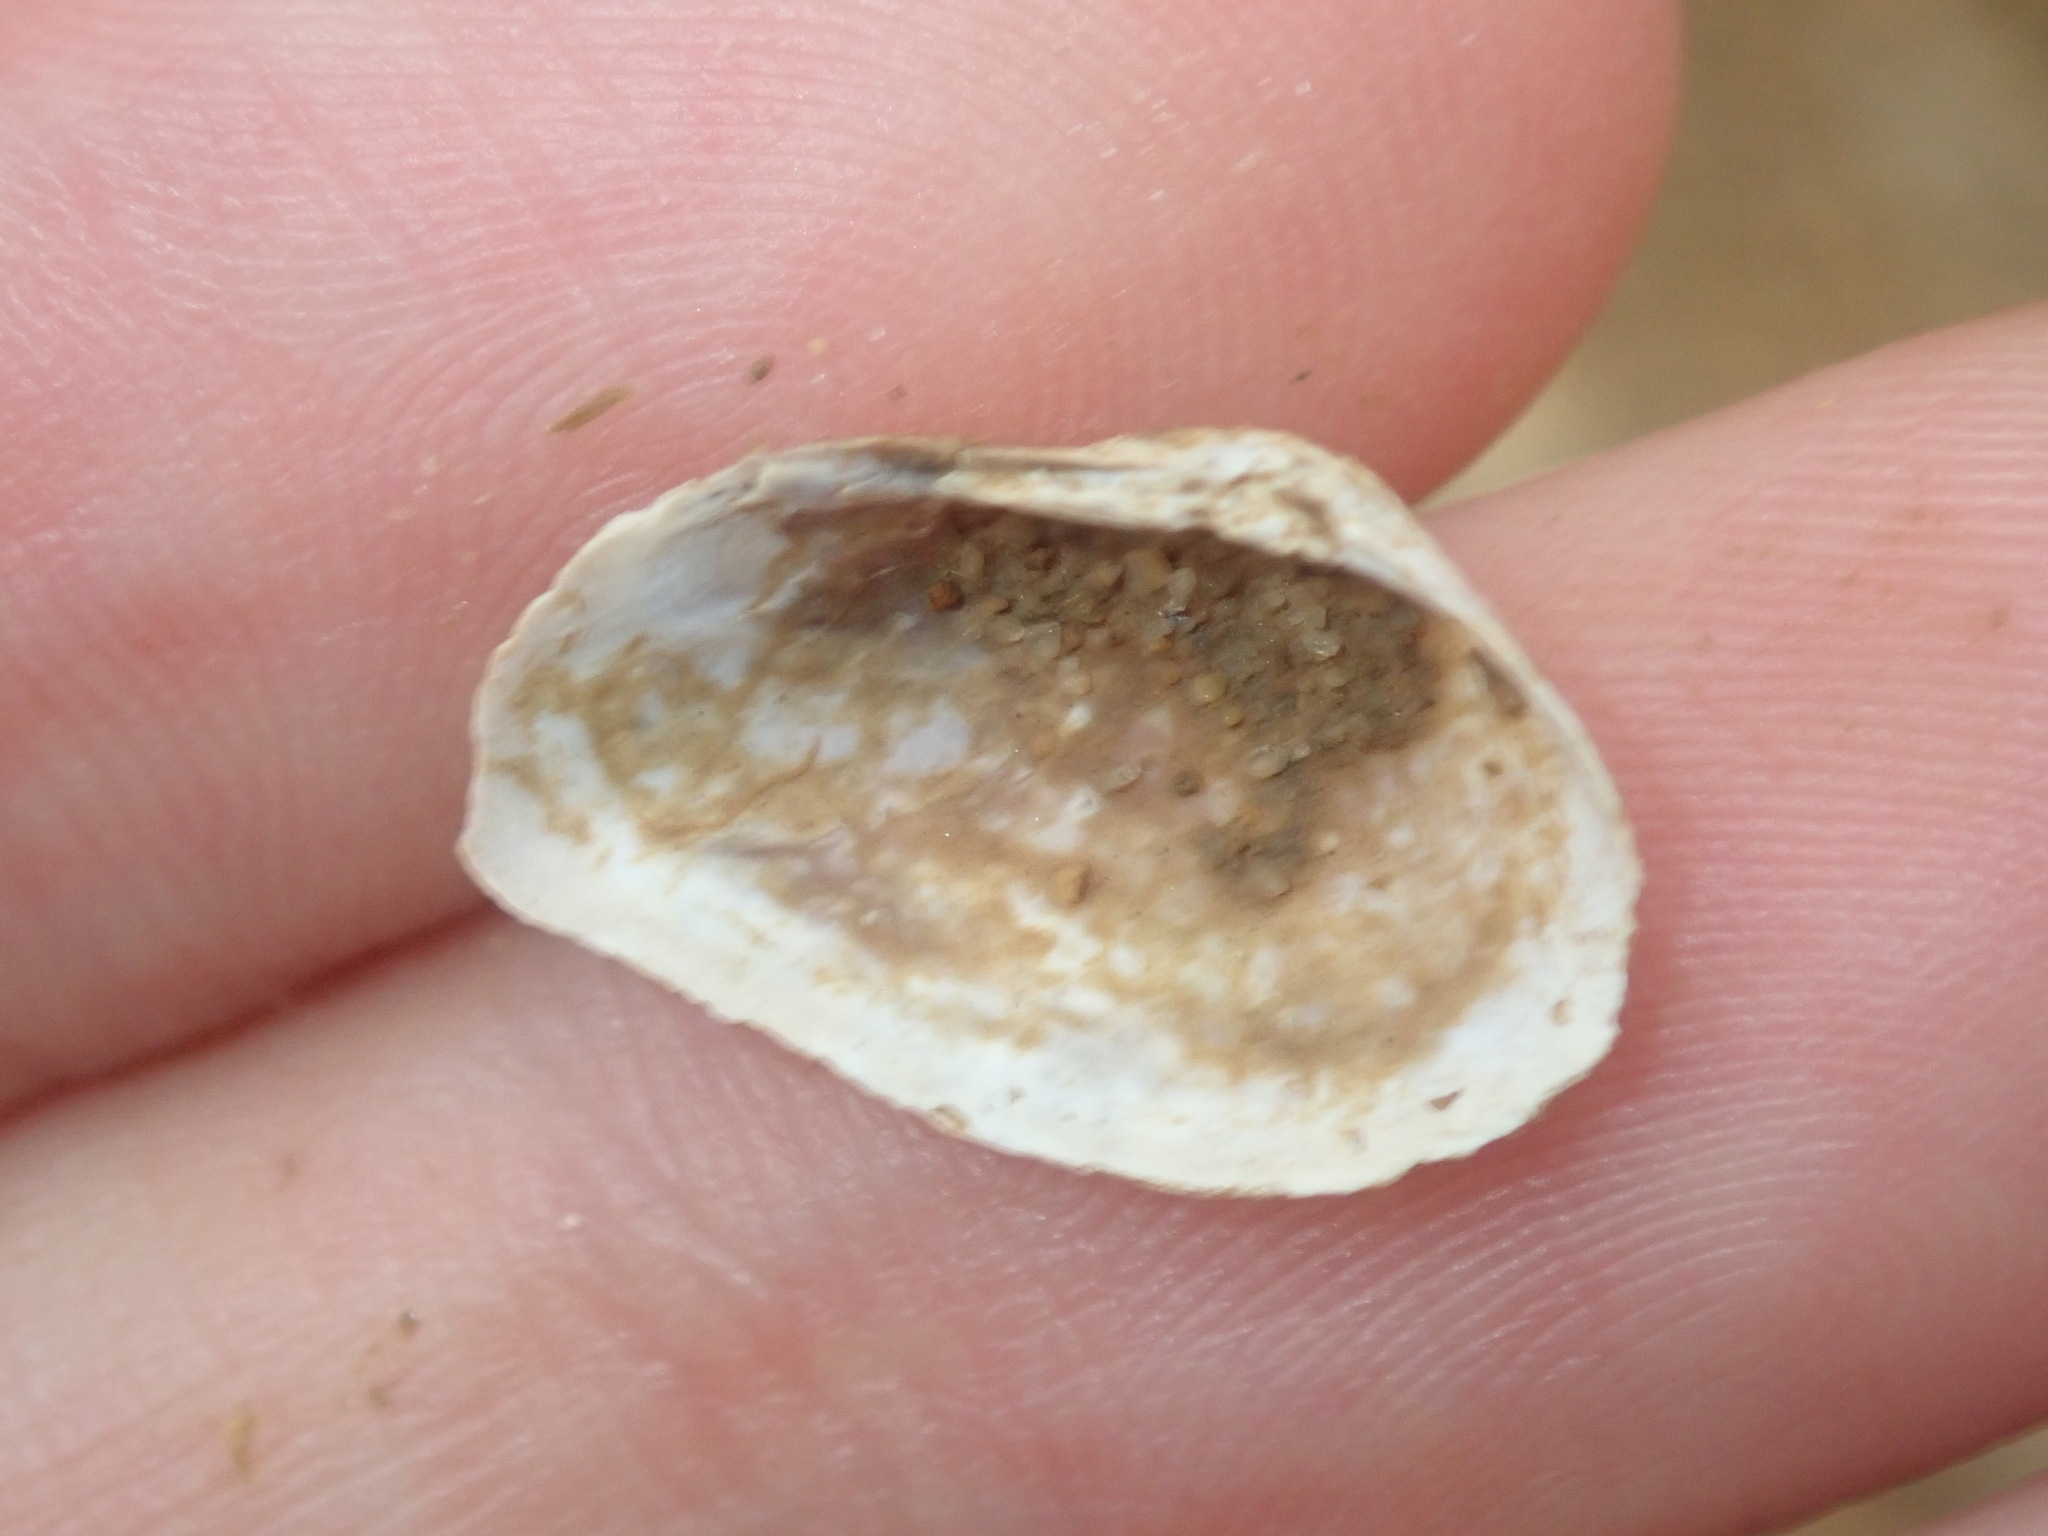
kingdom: Animalia
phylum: Mollusca
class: Bivalvia
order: Venerida
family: Glauconomidae
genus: Glauconome
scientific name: Glauconome radiata
